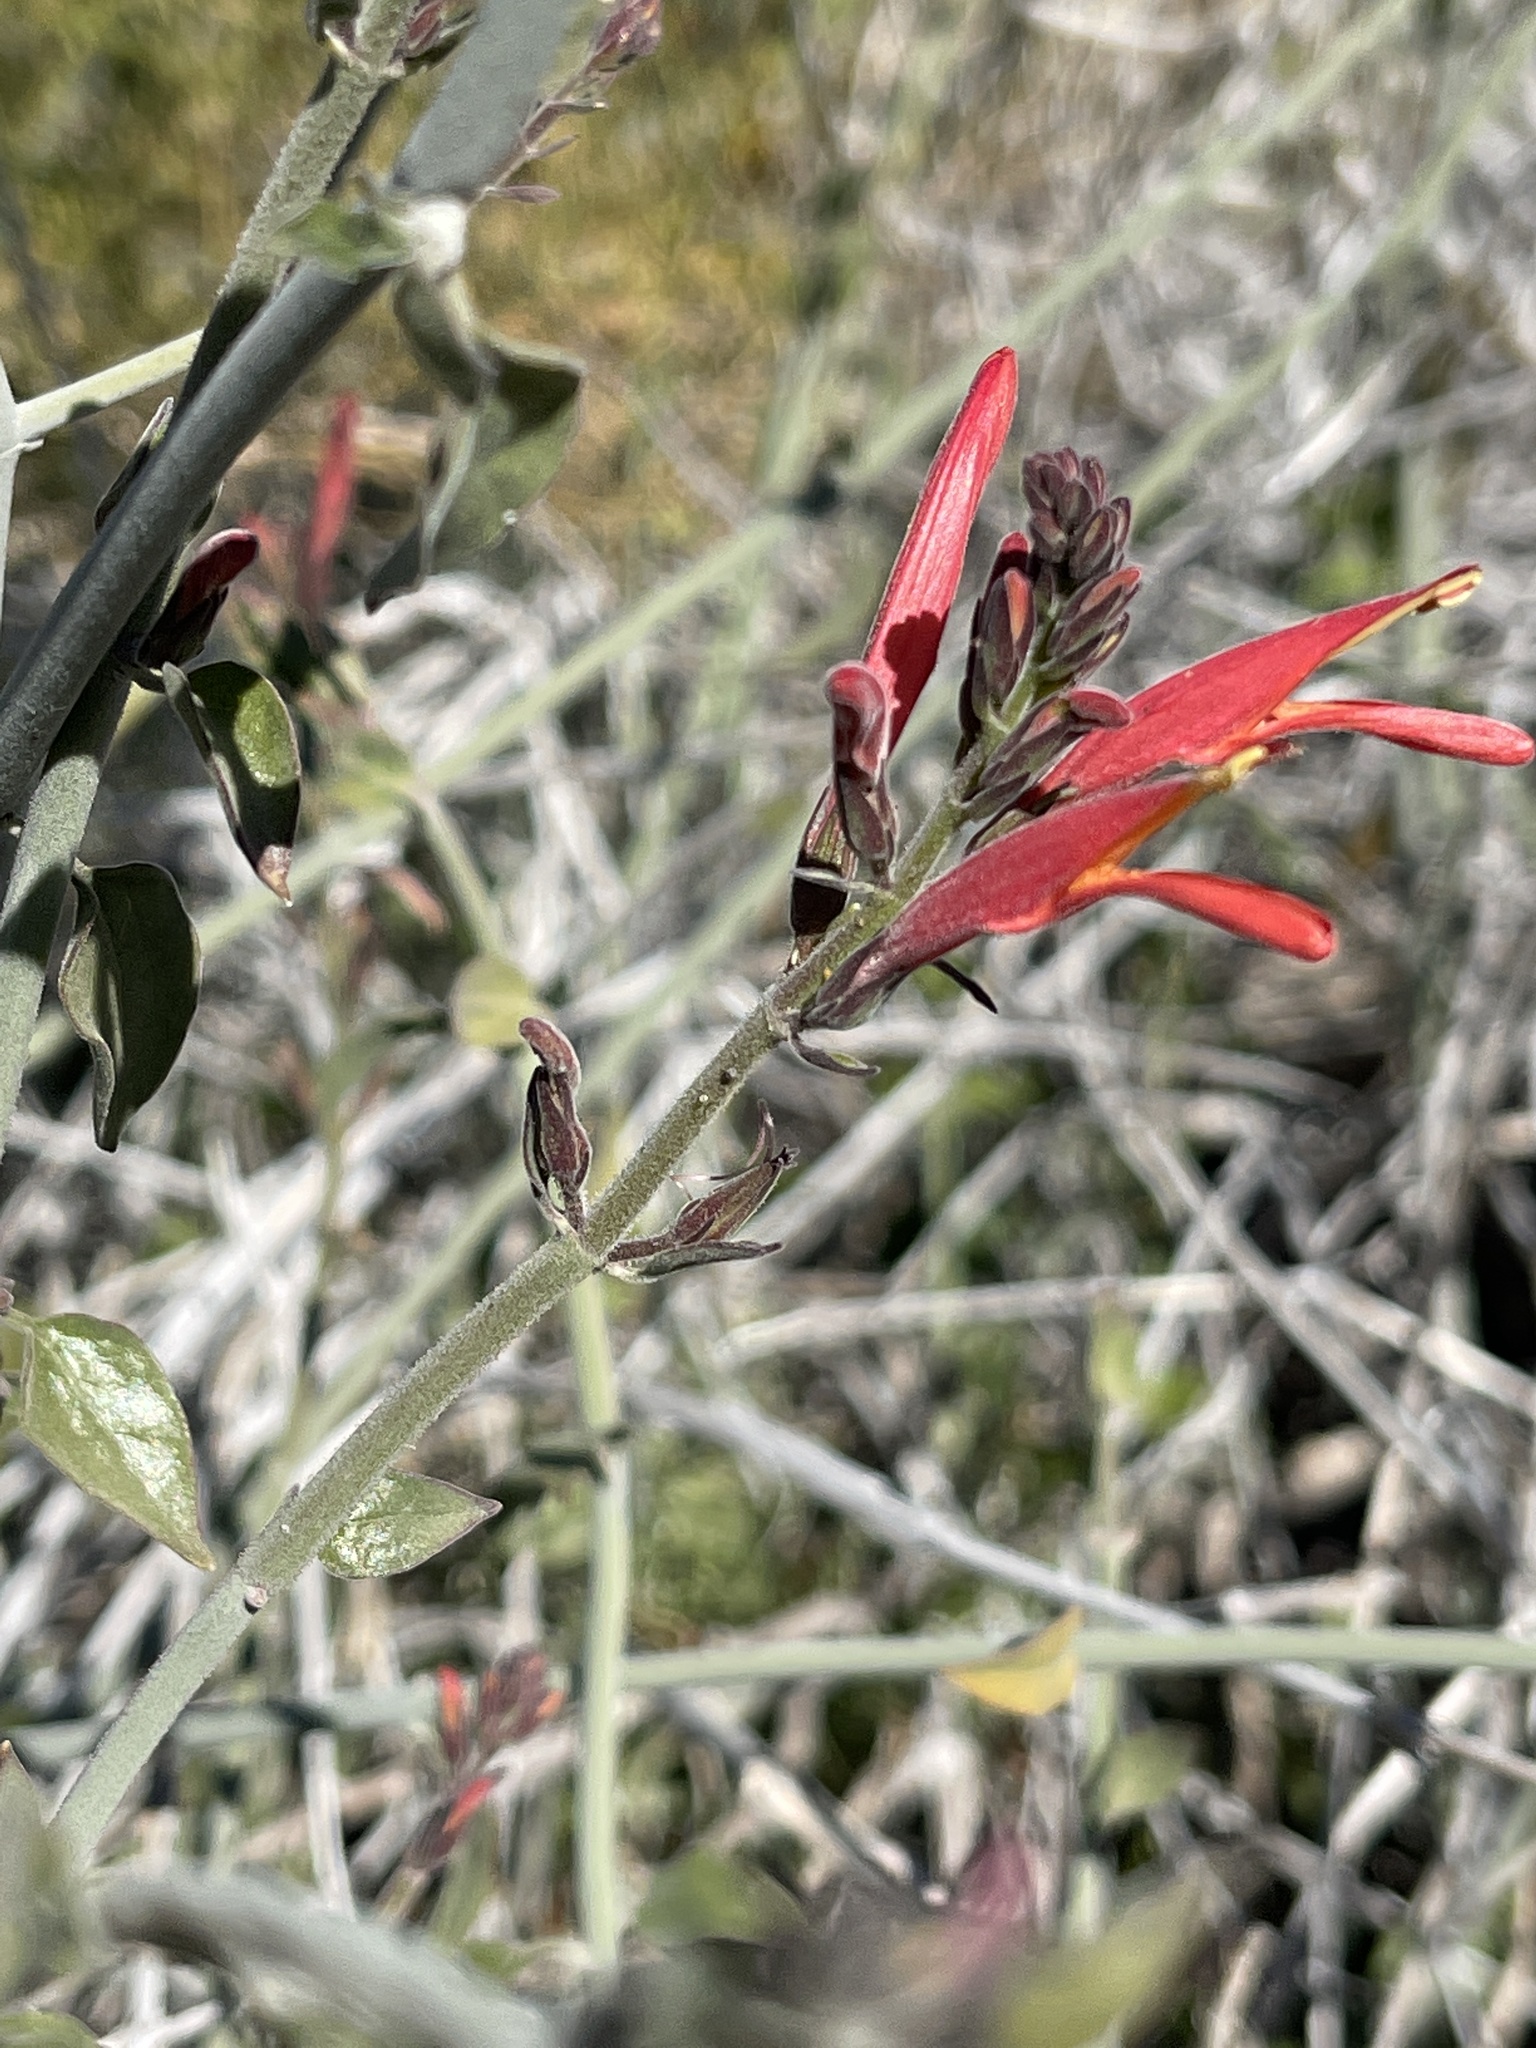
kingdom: Plantae
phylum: Tracheophyta
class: Magnoliopsida
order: Lamiales
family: Acanthaceae
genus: Justicia
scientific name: Justicia californica
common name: Chuparosa-honeysuckle
